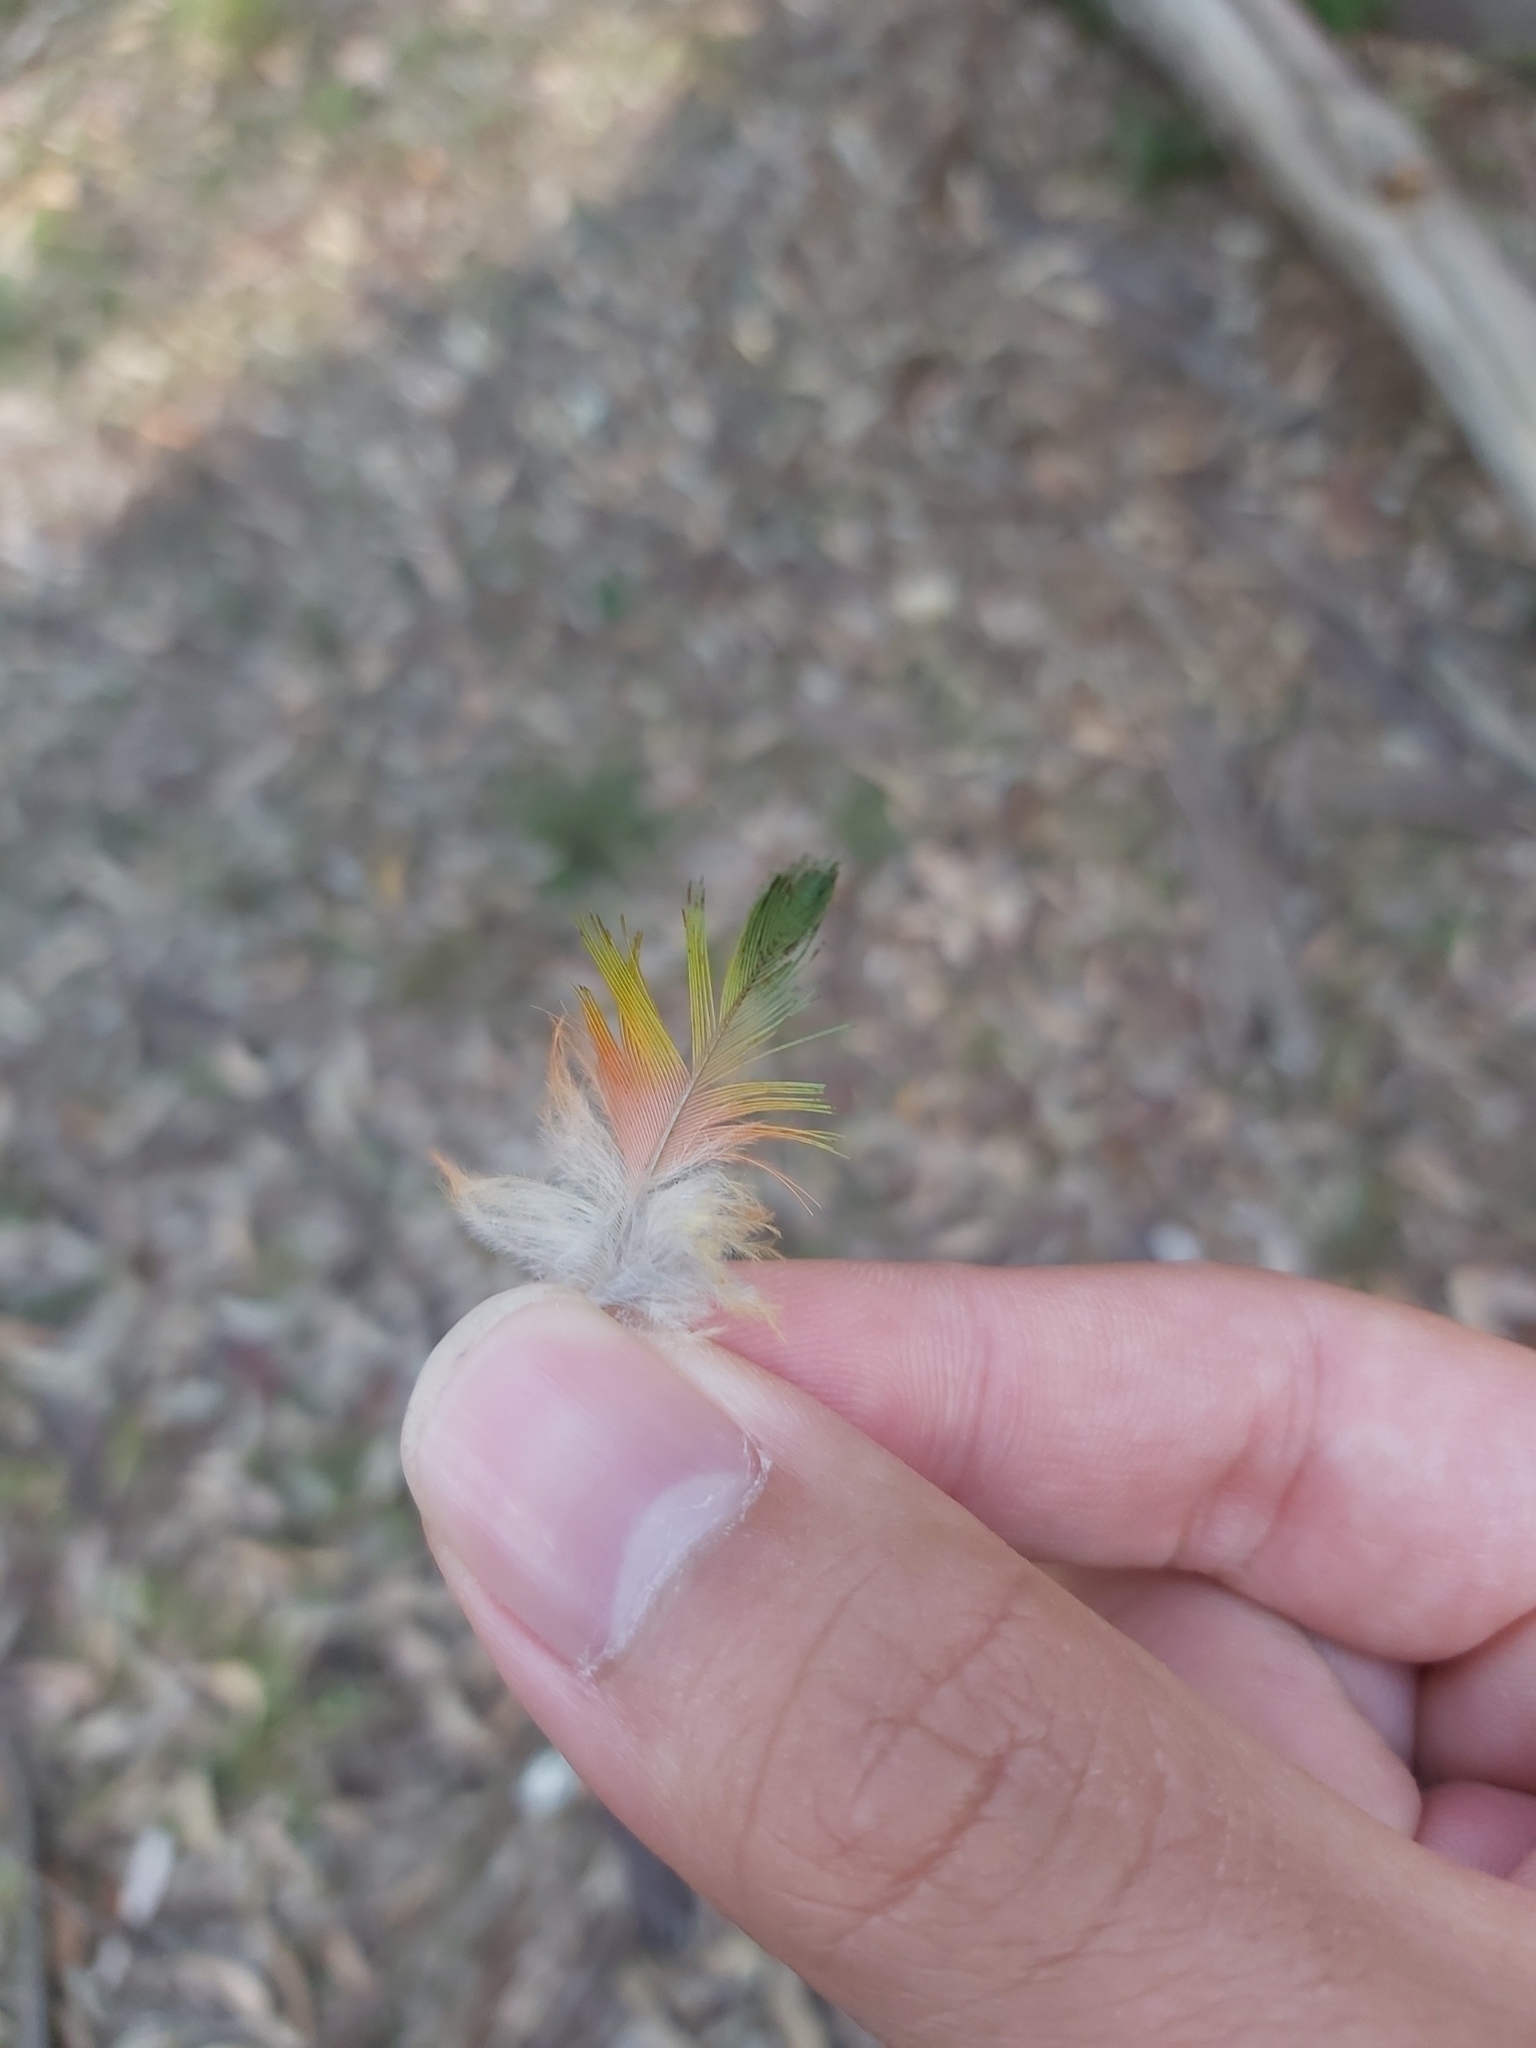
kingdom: Animalia
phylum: Chordata
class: Aves
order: Psittaciformes
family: Psittacidae
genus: Trichoglossus
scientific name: Trichoglossus haematodus
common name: Coconut lorikeet
